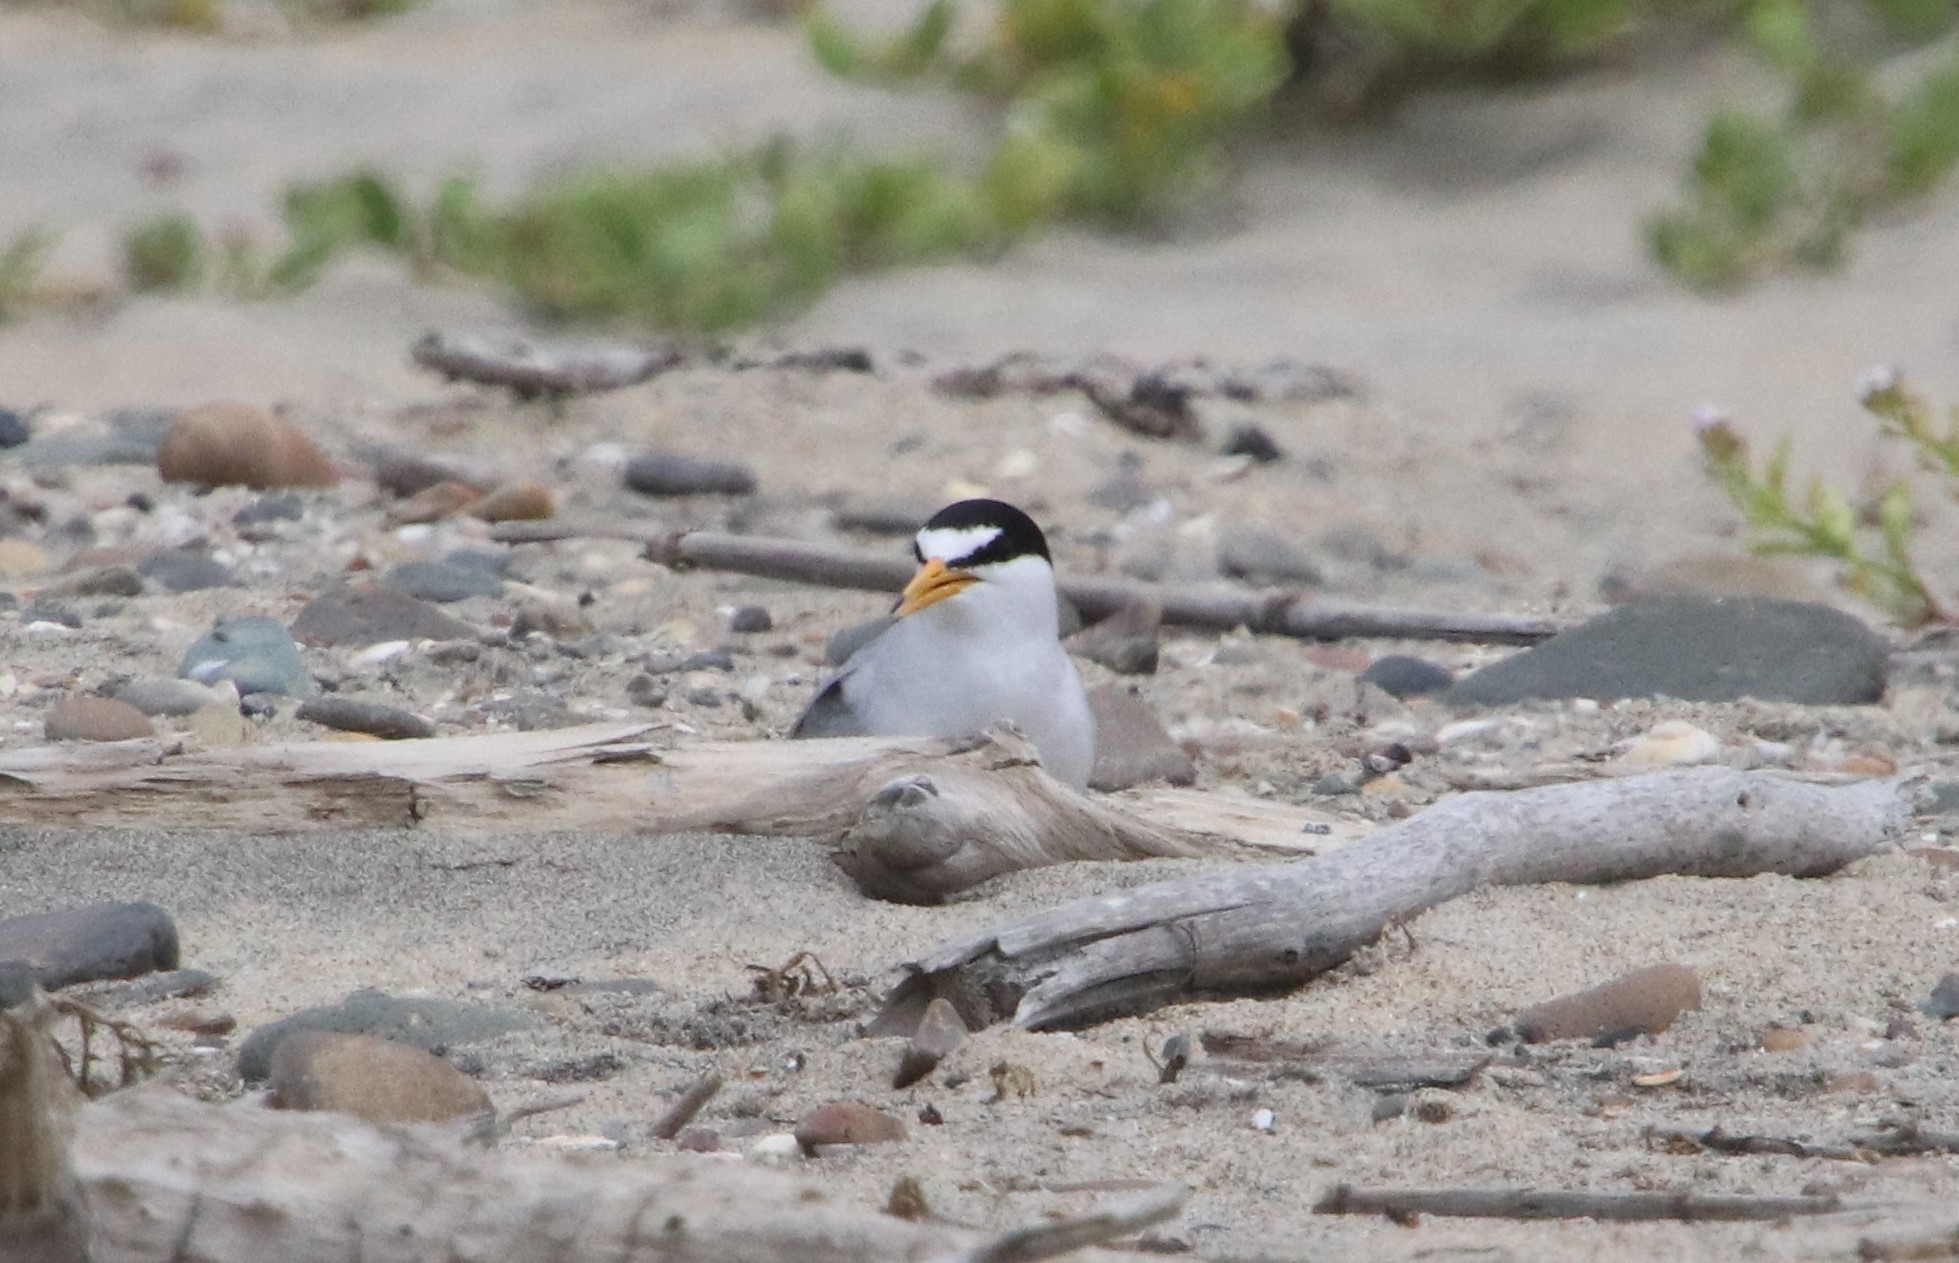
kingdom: Animalia
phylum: Chordata
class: Aves
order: Charadriiformes
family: Laridae
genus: Sternula
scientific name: Sternula antillarum
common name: Least tern
